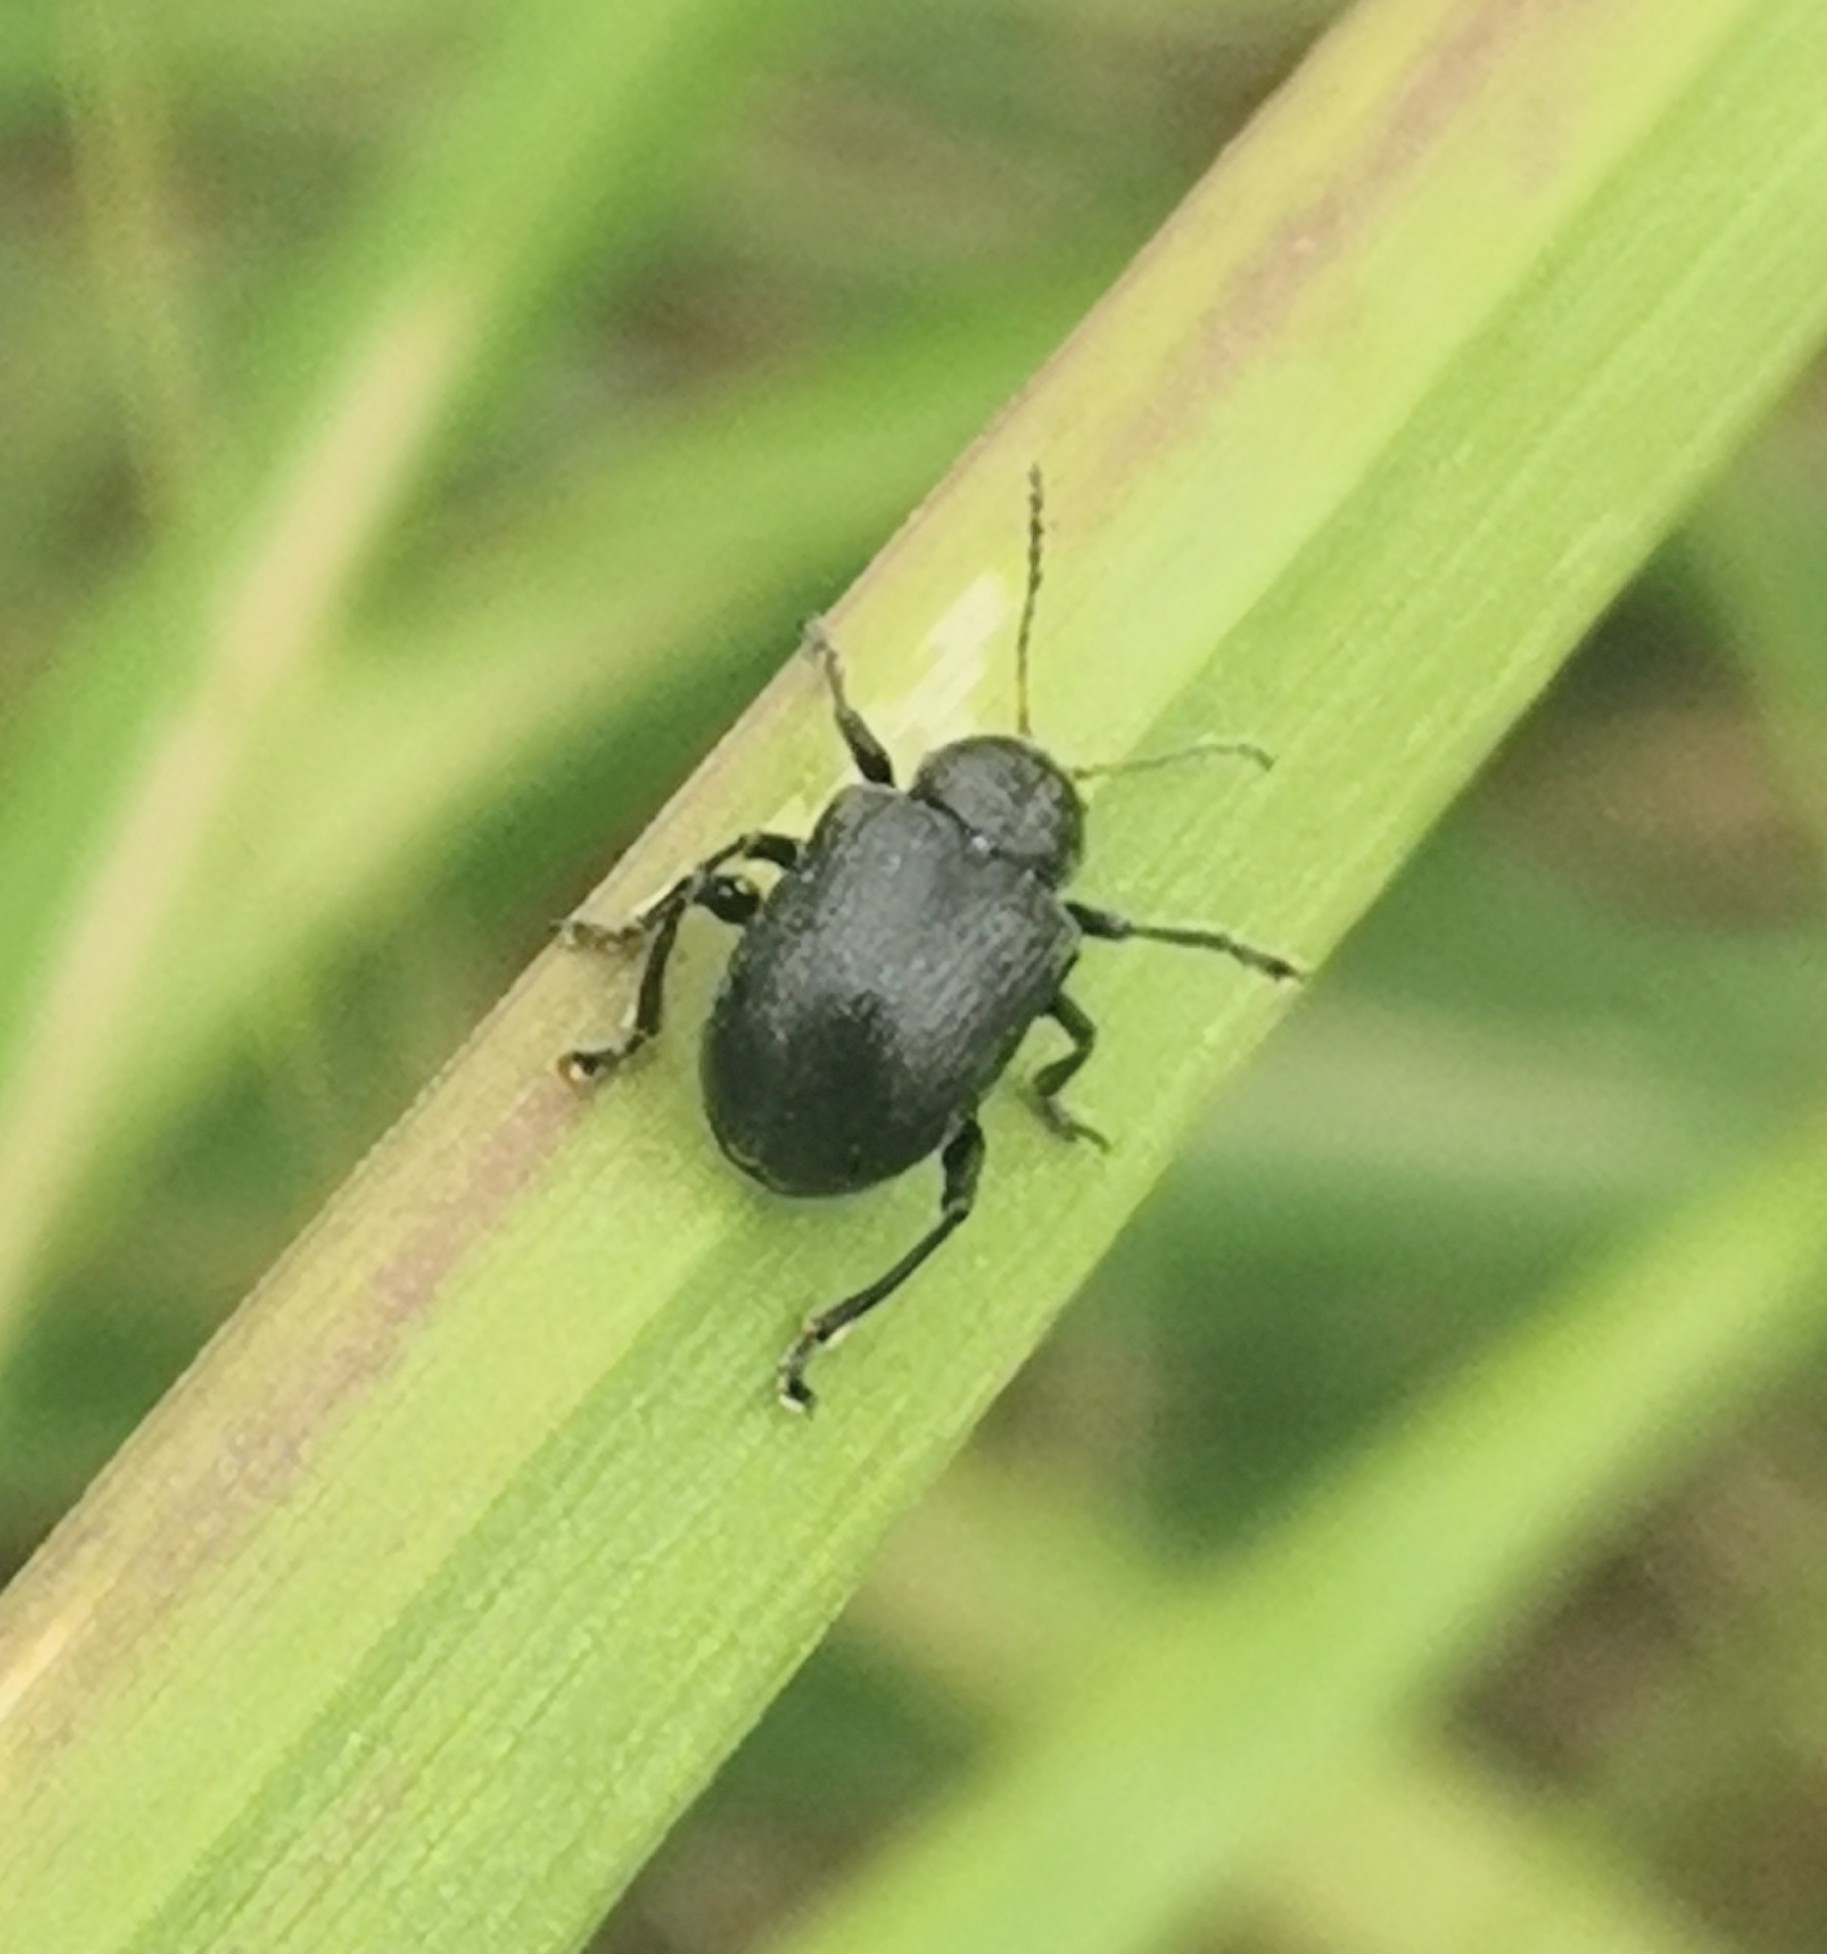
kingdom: Animalia
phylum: Arthropoda
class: Insecta
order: Coleoptera
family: Chrysomelidae
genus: Bromius
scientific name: Bromius obscurus
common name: Western grape rootworm
